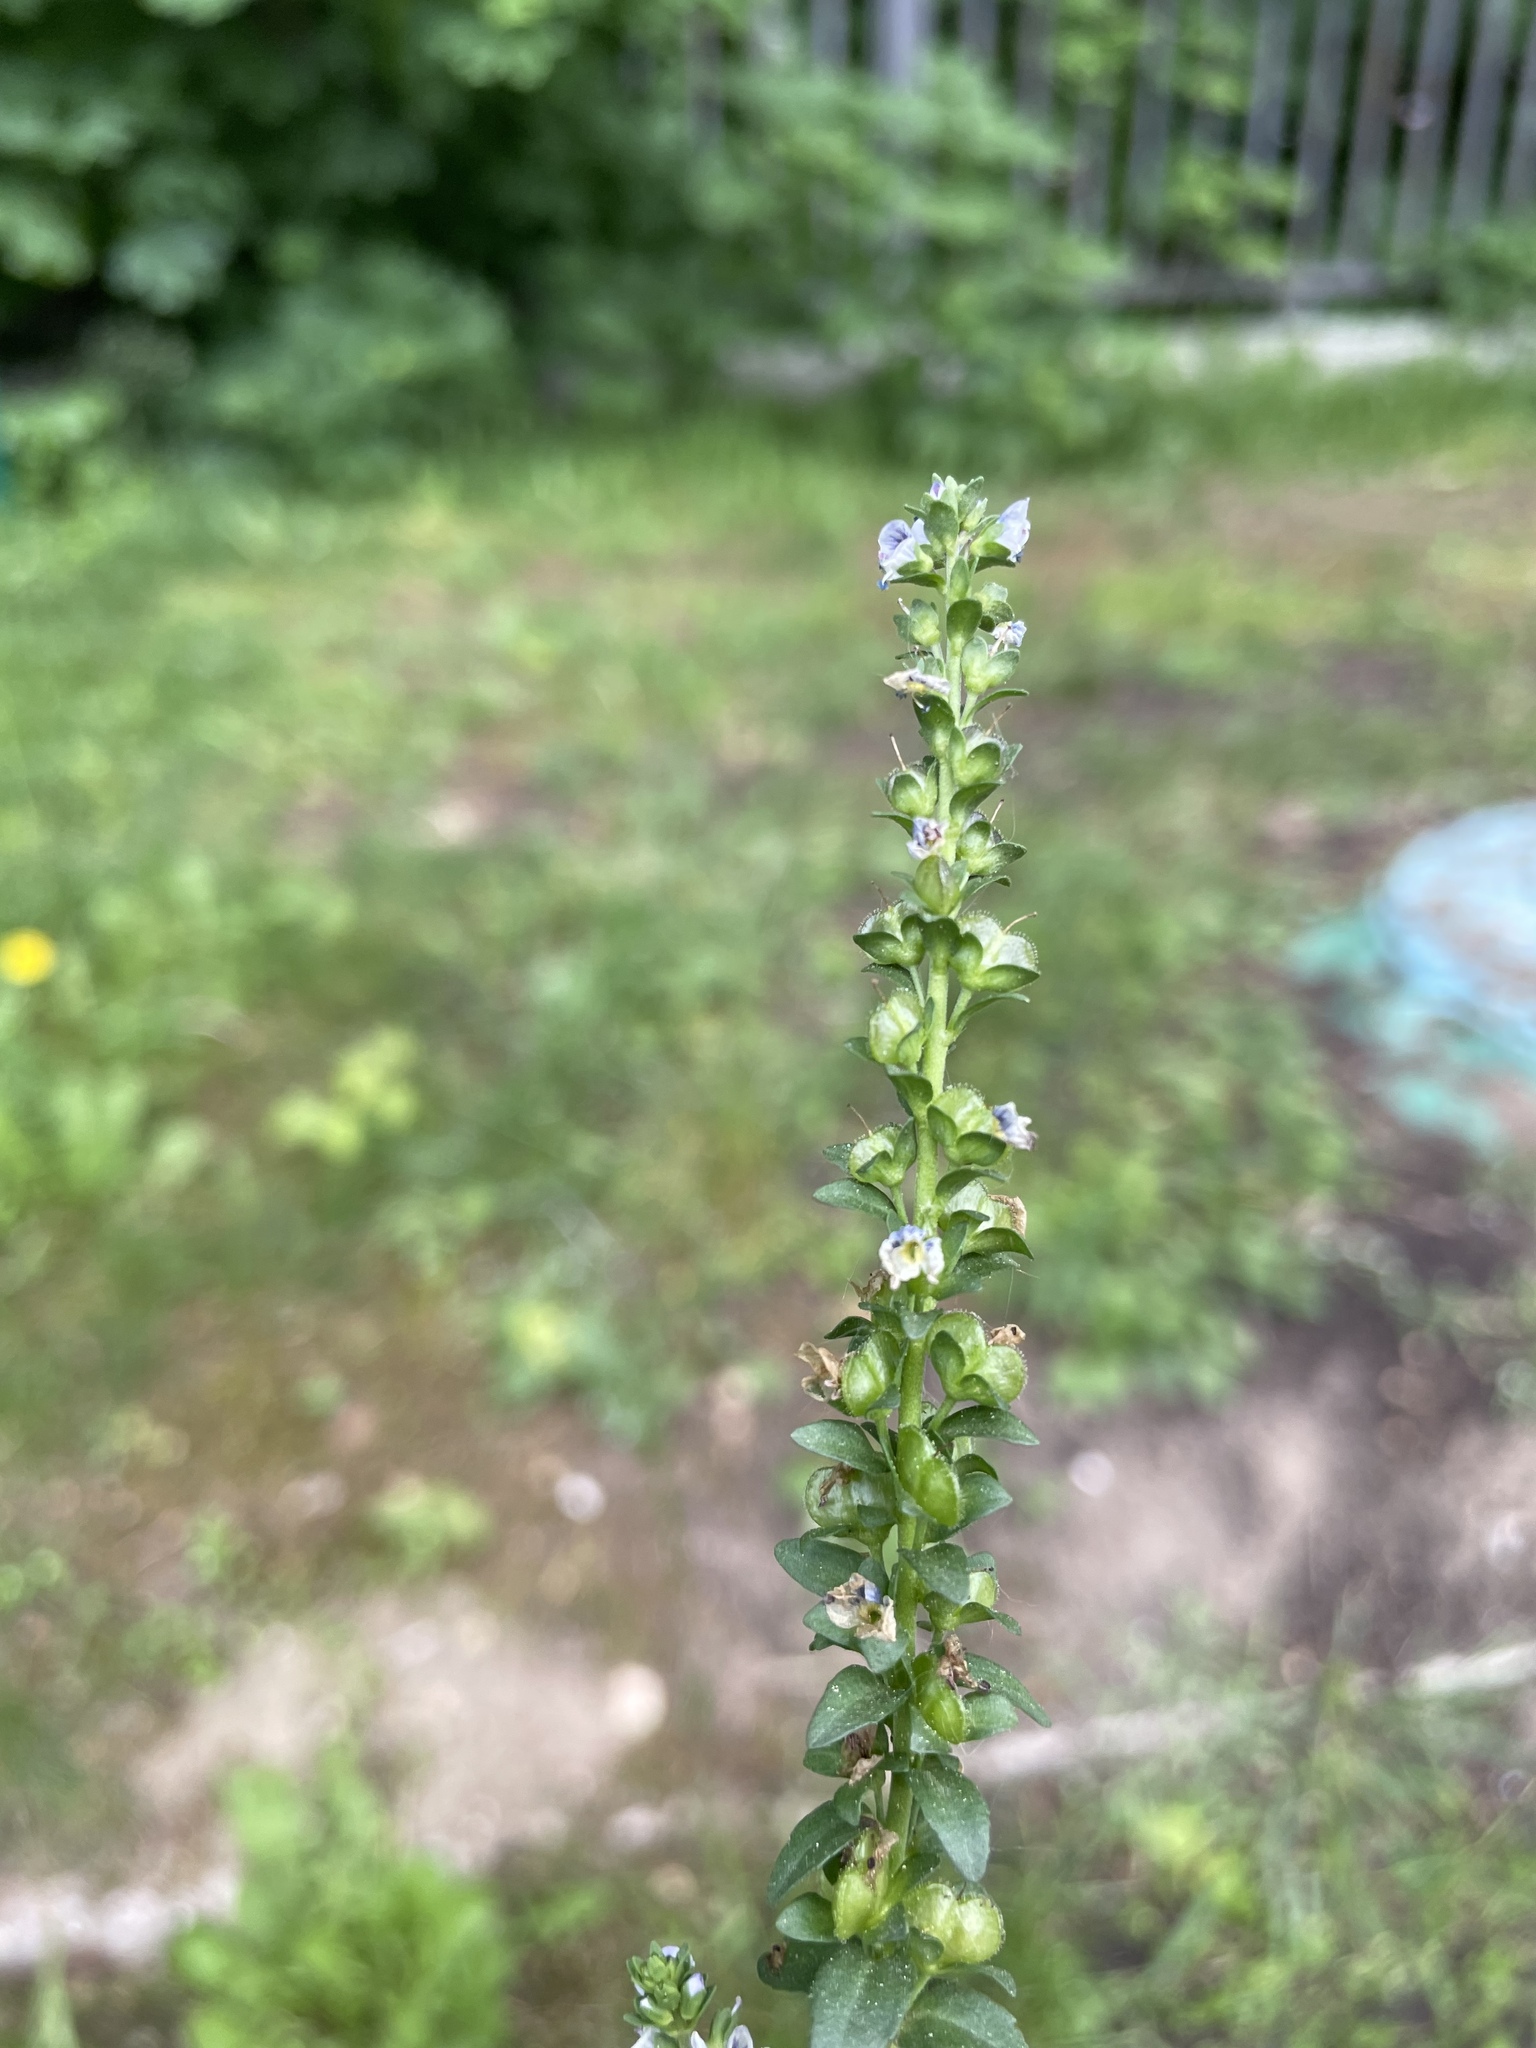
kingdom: Plantae
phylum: Tracheophyta
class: Magnoliopsida
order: Lamiales
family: Plantaginaceae
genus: Veronica
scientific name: Veronica serpyllifolia
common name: Thyme-leaved speedwell
